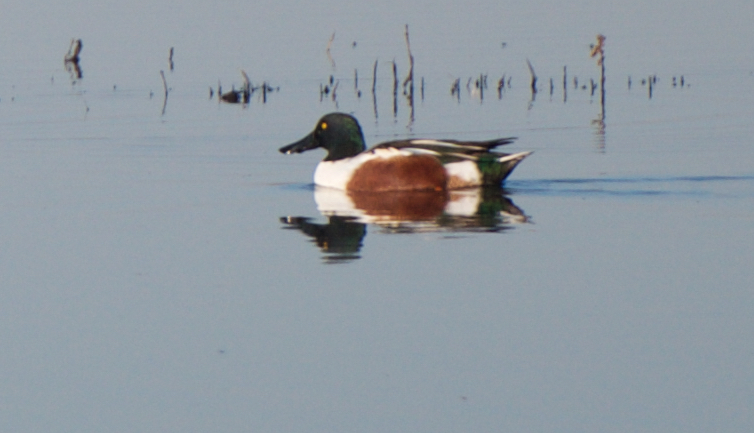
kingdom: Animalia
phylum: Chordata
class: Aves
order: Anseriformes
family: Anatidae
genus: Spatula
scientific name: Spatula clypeata
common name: Northern shoveler
